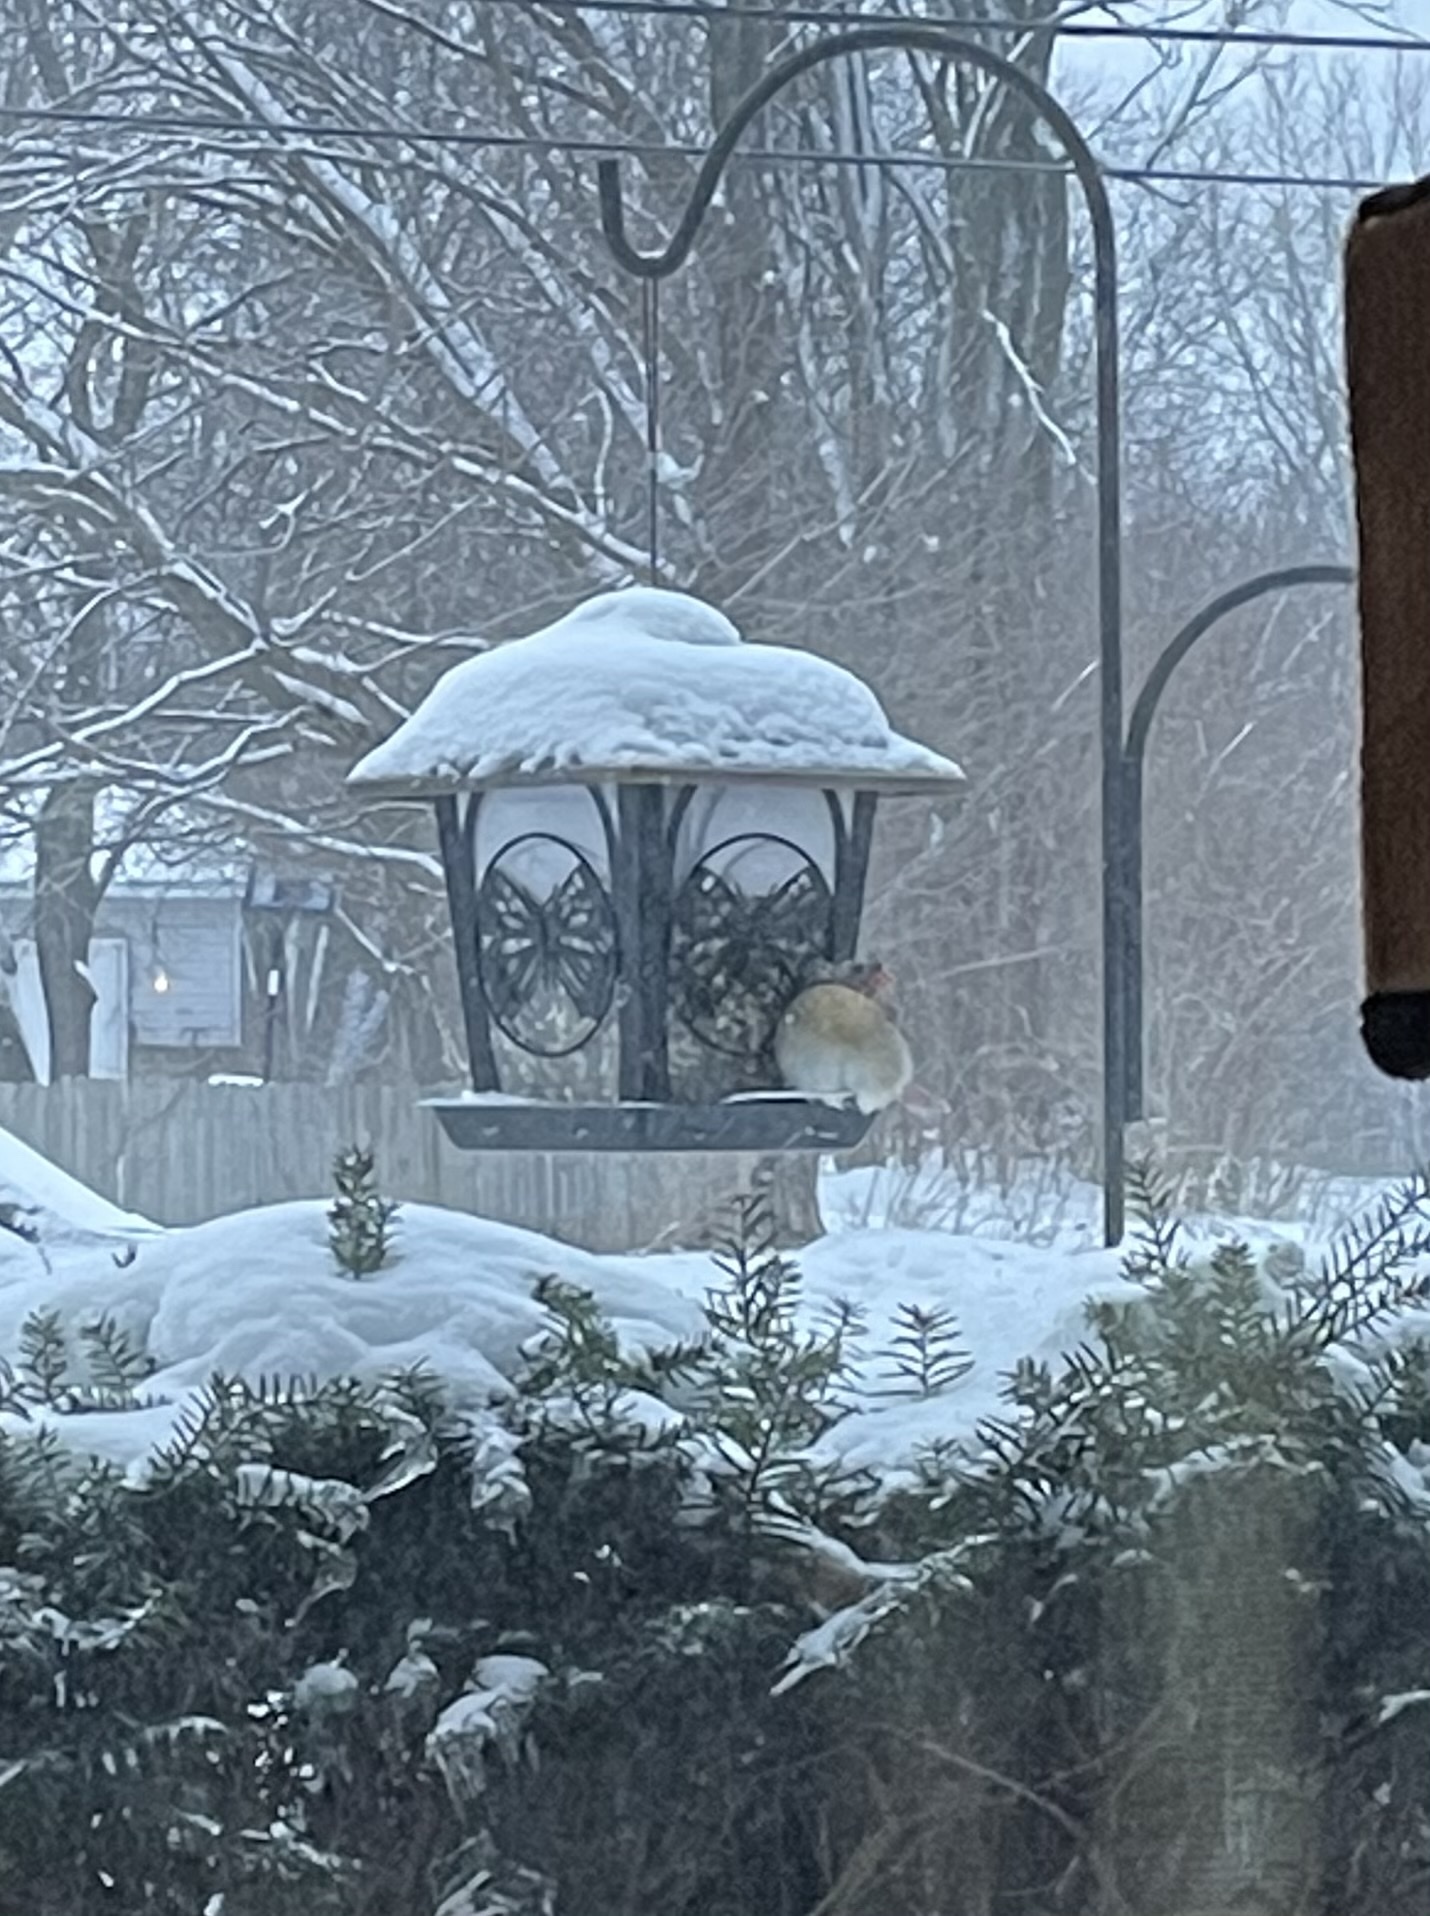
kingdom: Animalia
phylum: Chordata
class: Aves
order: Passeriformes
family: Cardinalidae
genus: Cardinalis
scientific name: Cardinalis cardinalis
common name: Northern cardinal
